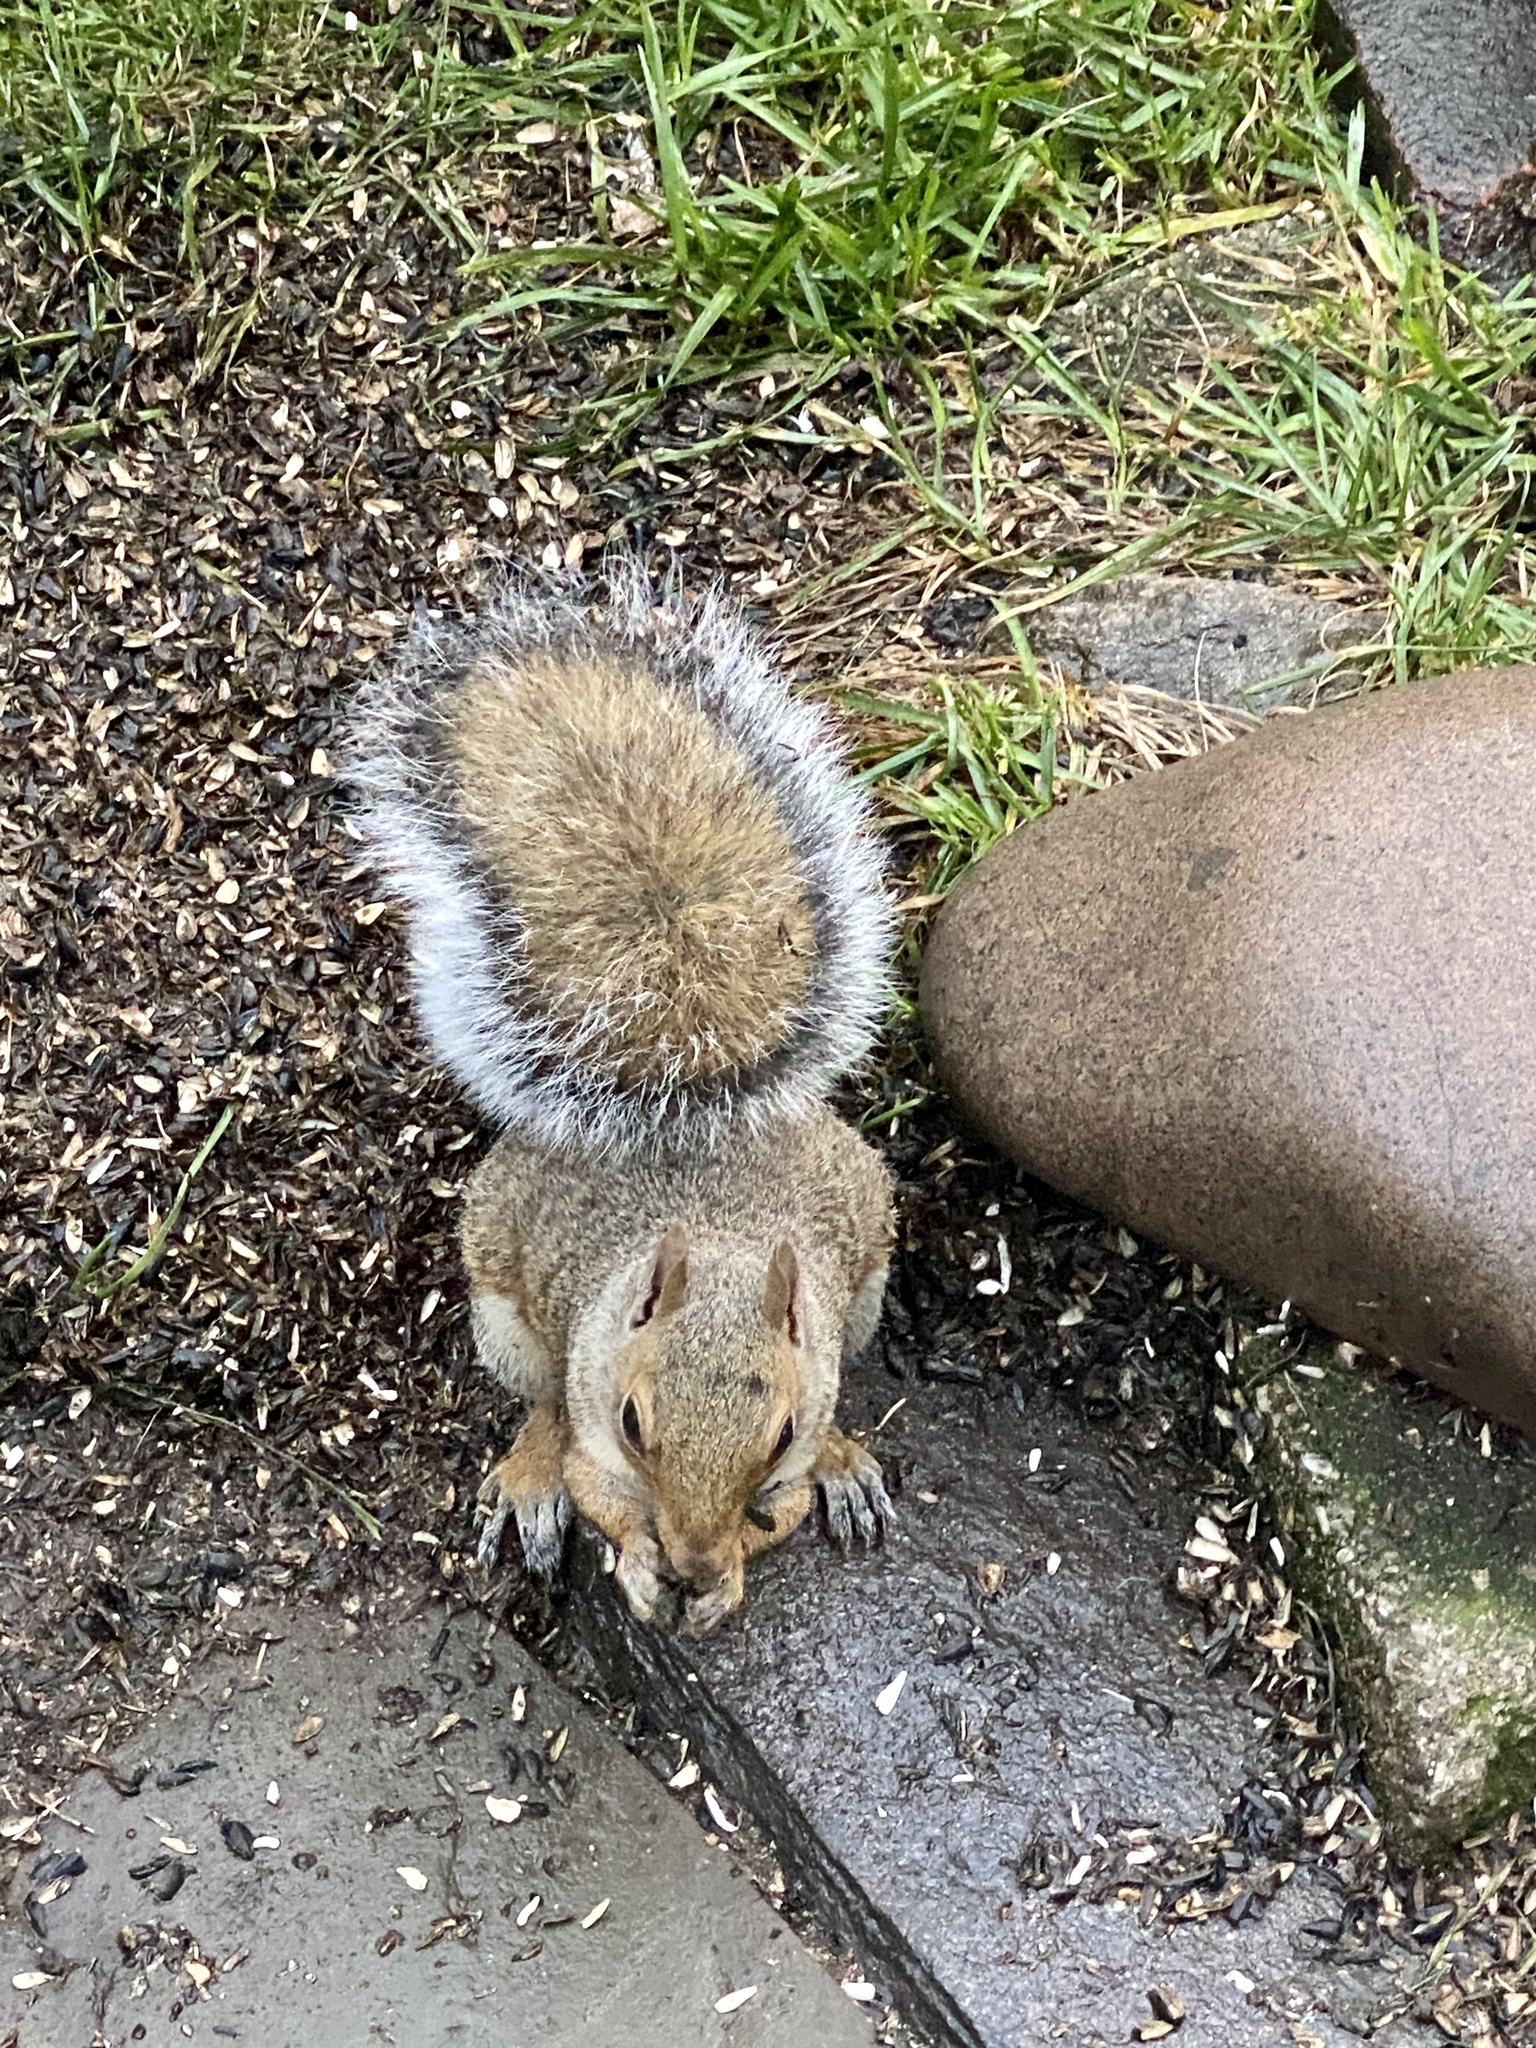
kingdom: Animalia
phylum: Chordata
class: Mammalia
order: Rodentia
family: Sciuridae
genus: Sciurus
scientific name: Sciurus carolinensis
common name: Eastern gray squirrel
